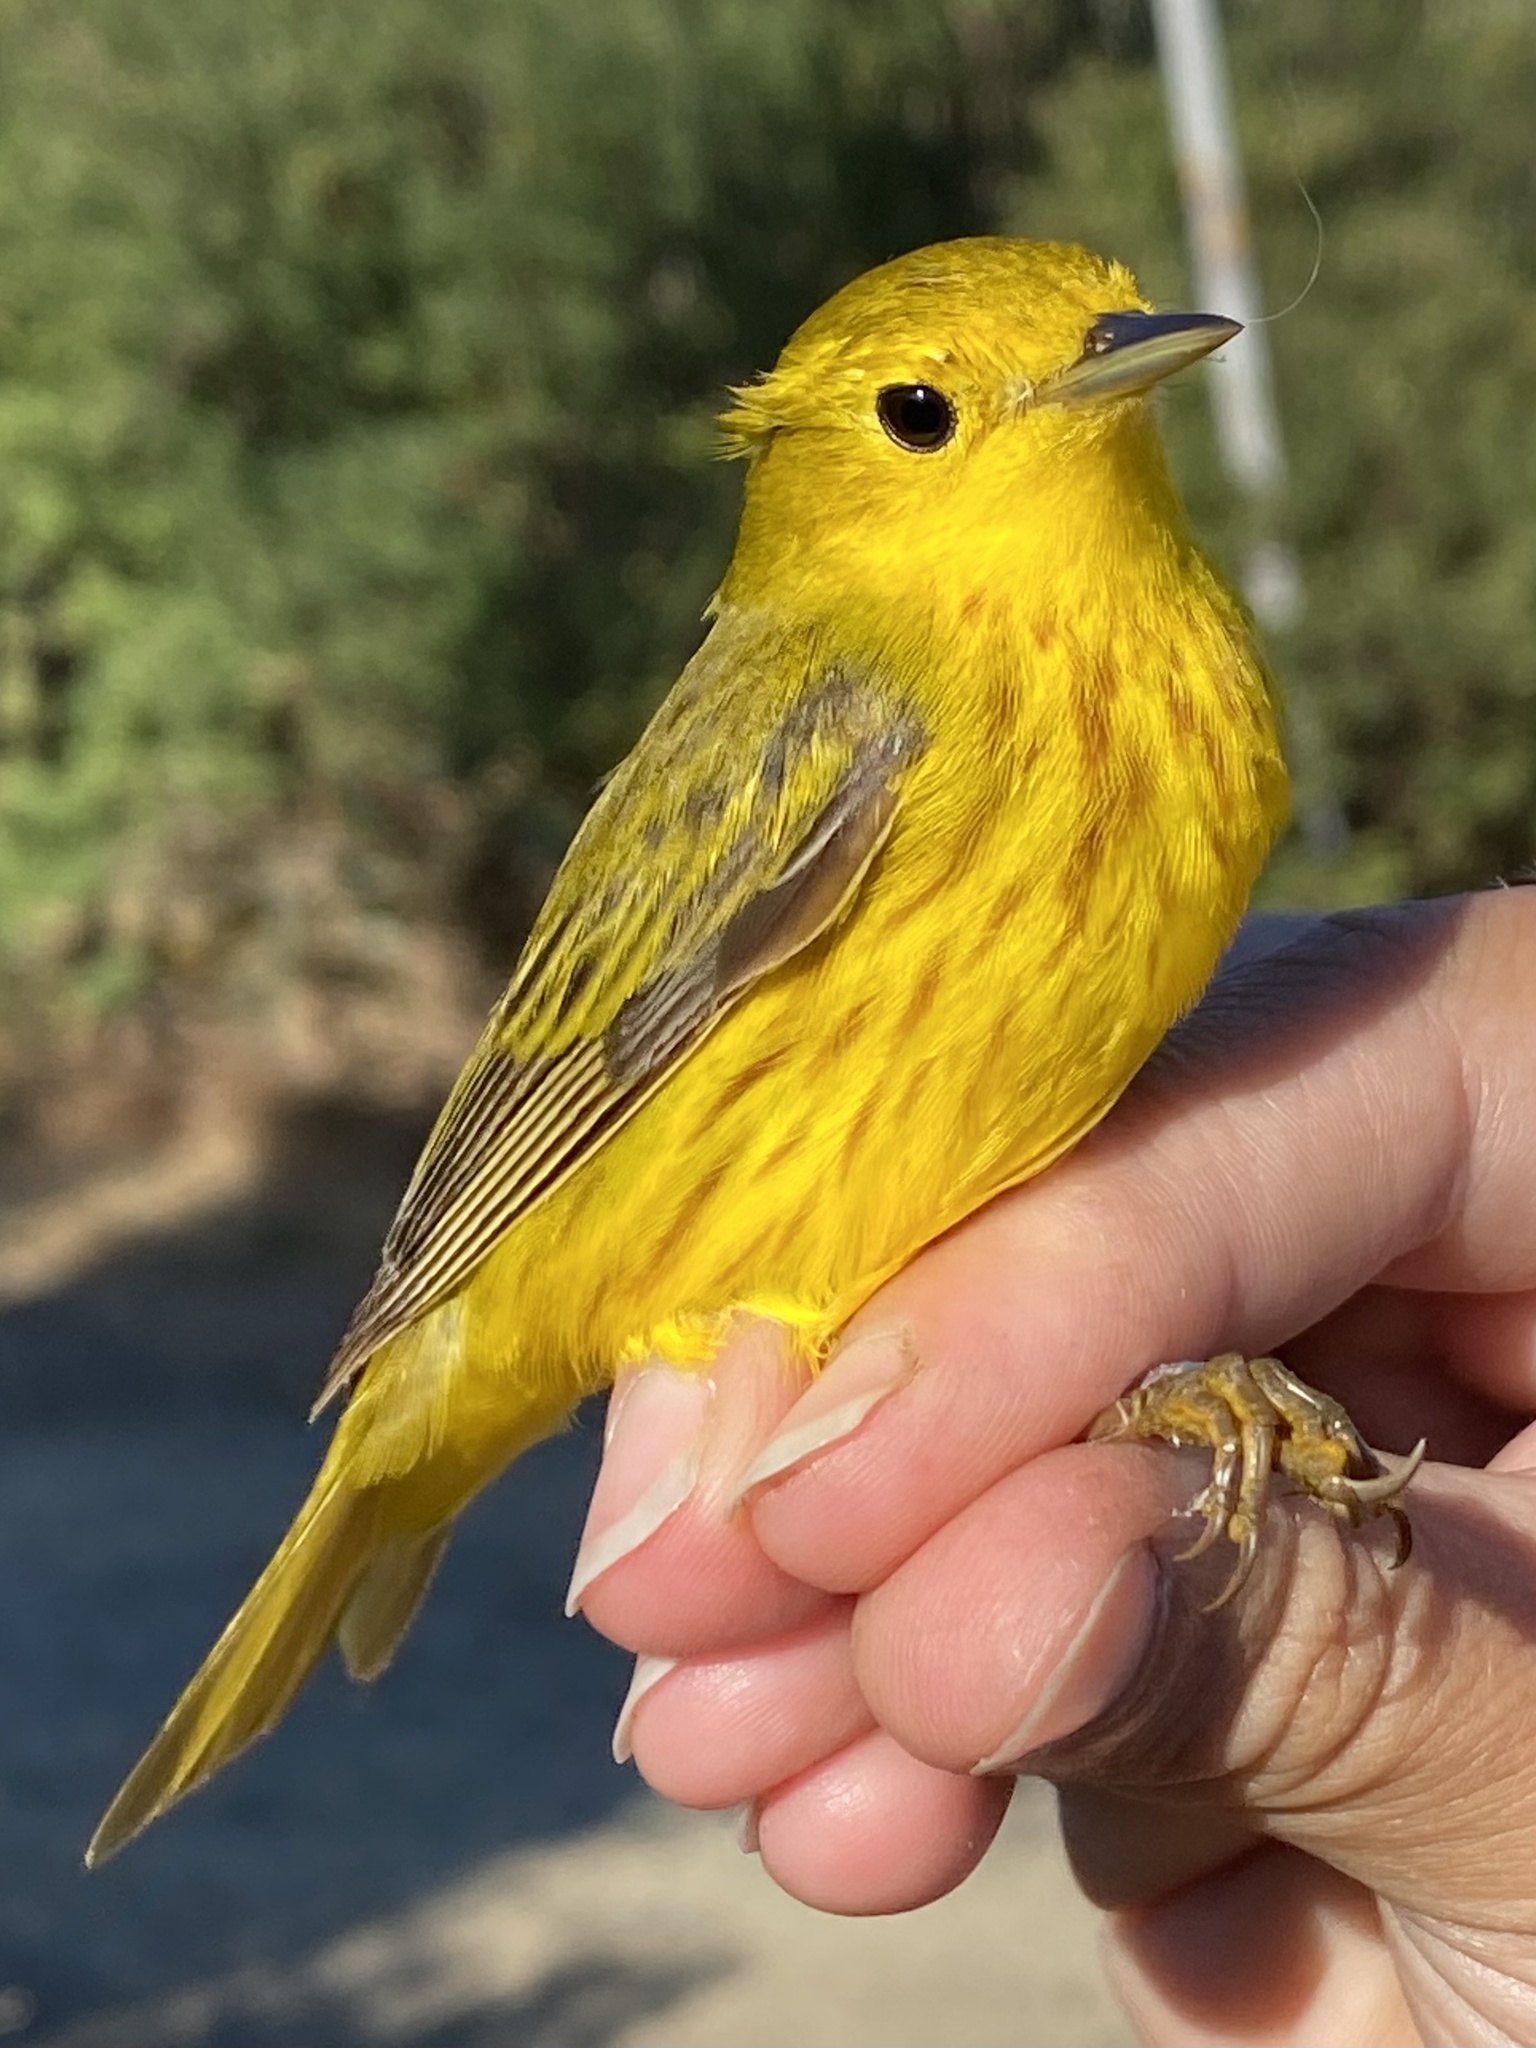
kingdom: Animalia
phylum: Chordata
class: Aves
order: Passeriformes
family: Parulidae
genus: Setophaga
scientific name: Setophaga petechia
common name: Yellow warbler
